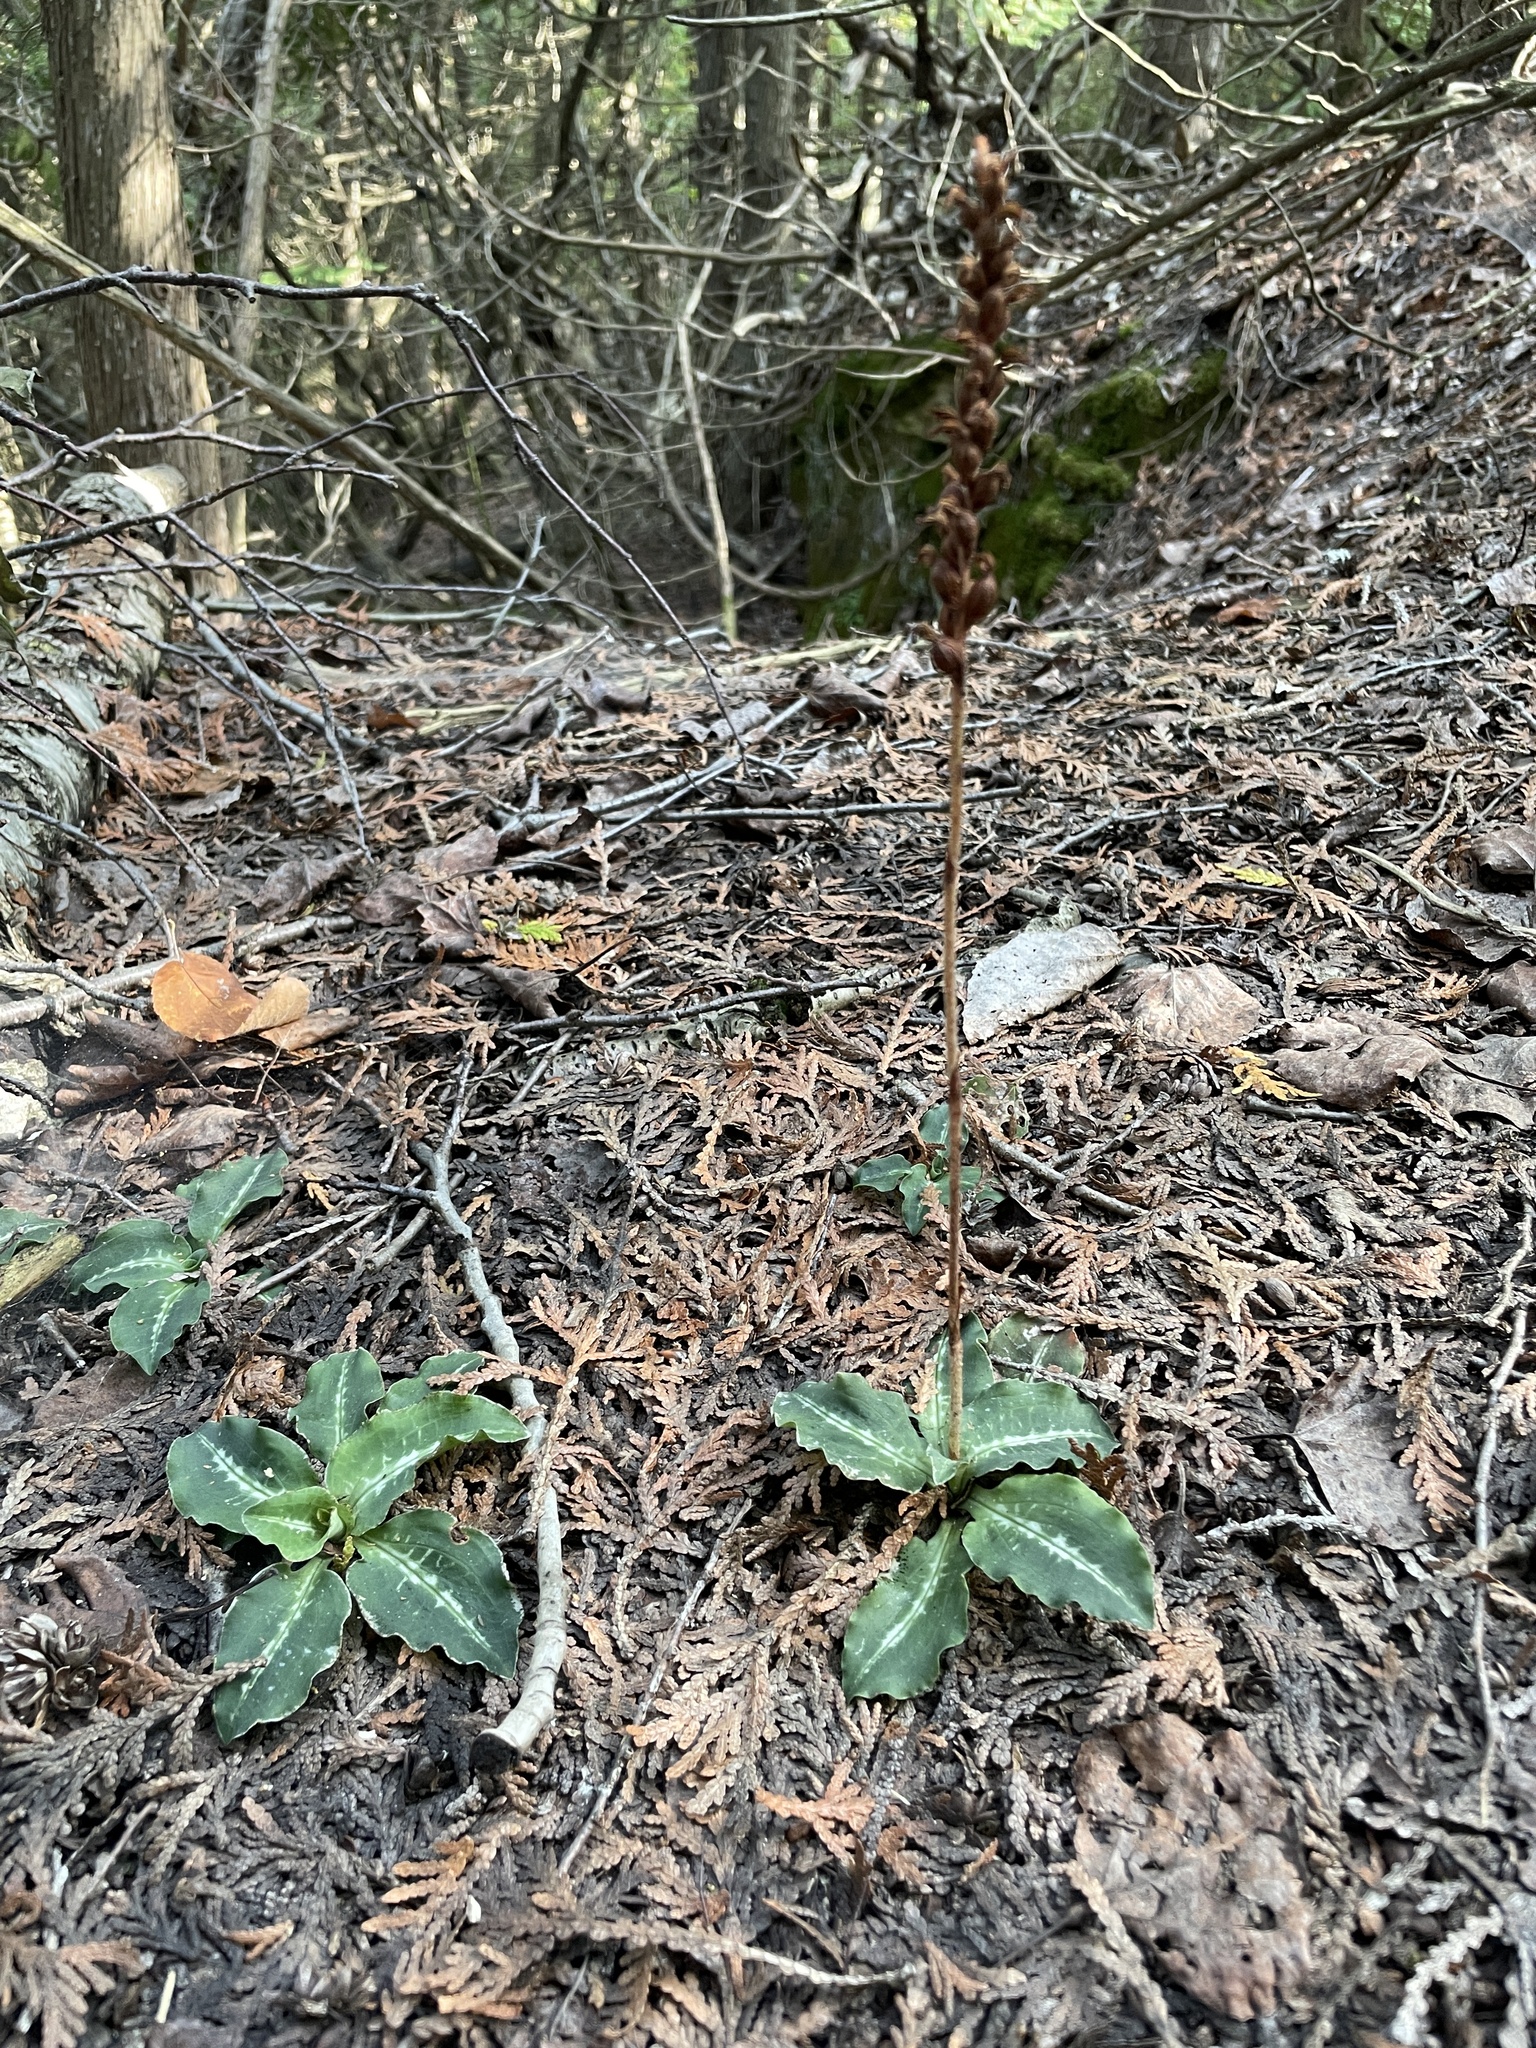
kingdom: Plantae
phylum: Tracheophyta
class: Liliopsida
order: Asparagales
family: Orchidaceae
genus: Goodyera
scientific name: Goodyera oblongifolia
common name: Giant rattlesnake-plantain
